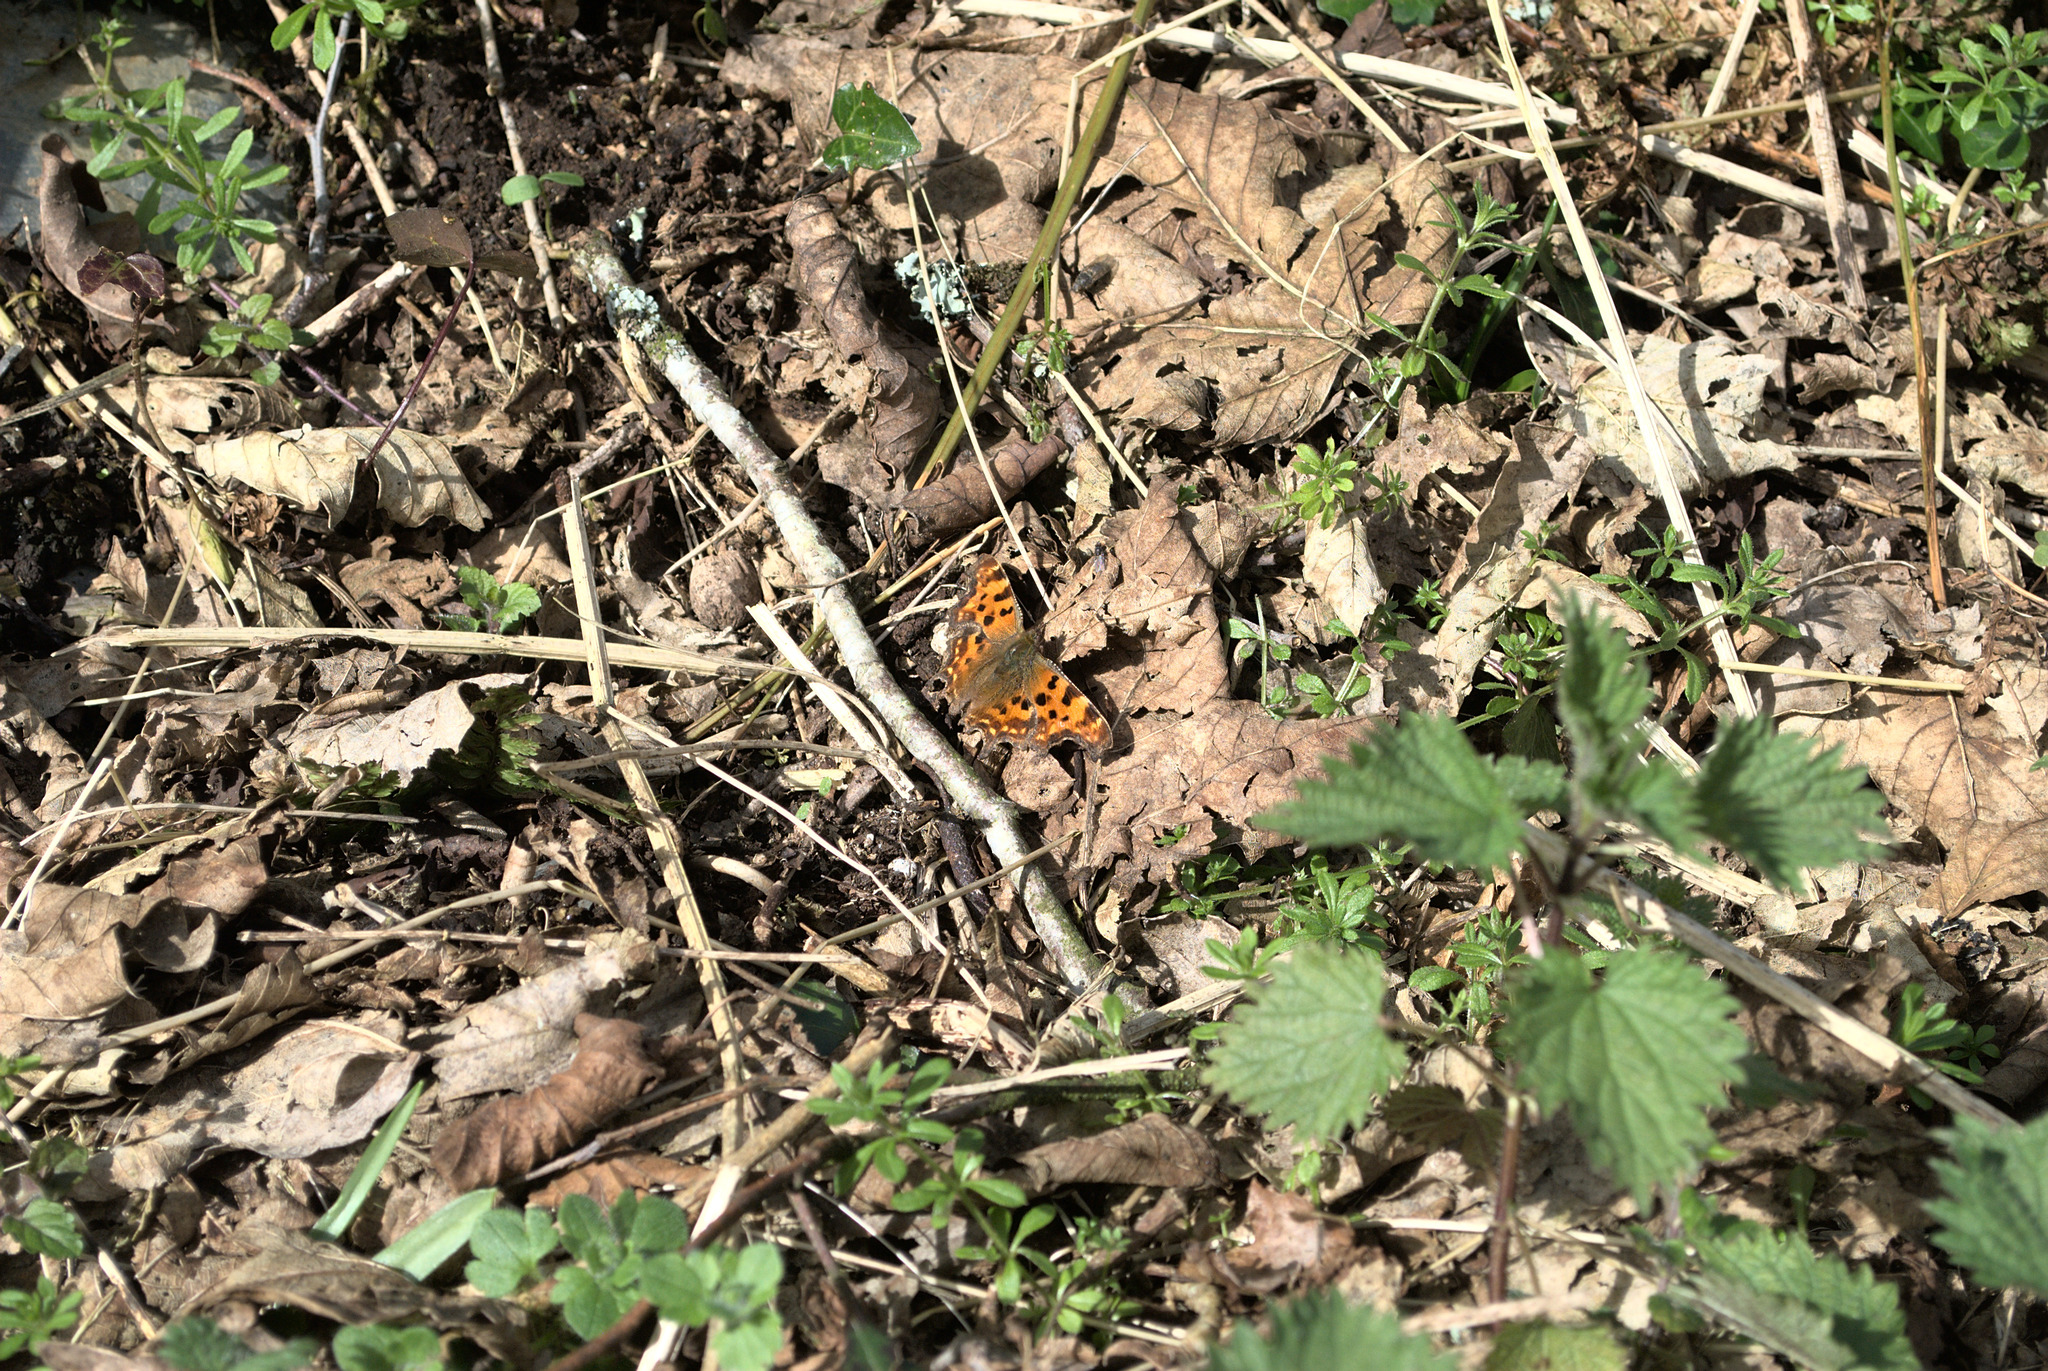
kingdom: Animalia
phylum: Arthropoda
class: Insecta
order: Lepidoptera
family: Nymphalidae
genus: Polygonia
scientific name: Polygonia c-album
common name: Comma
